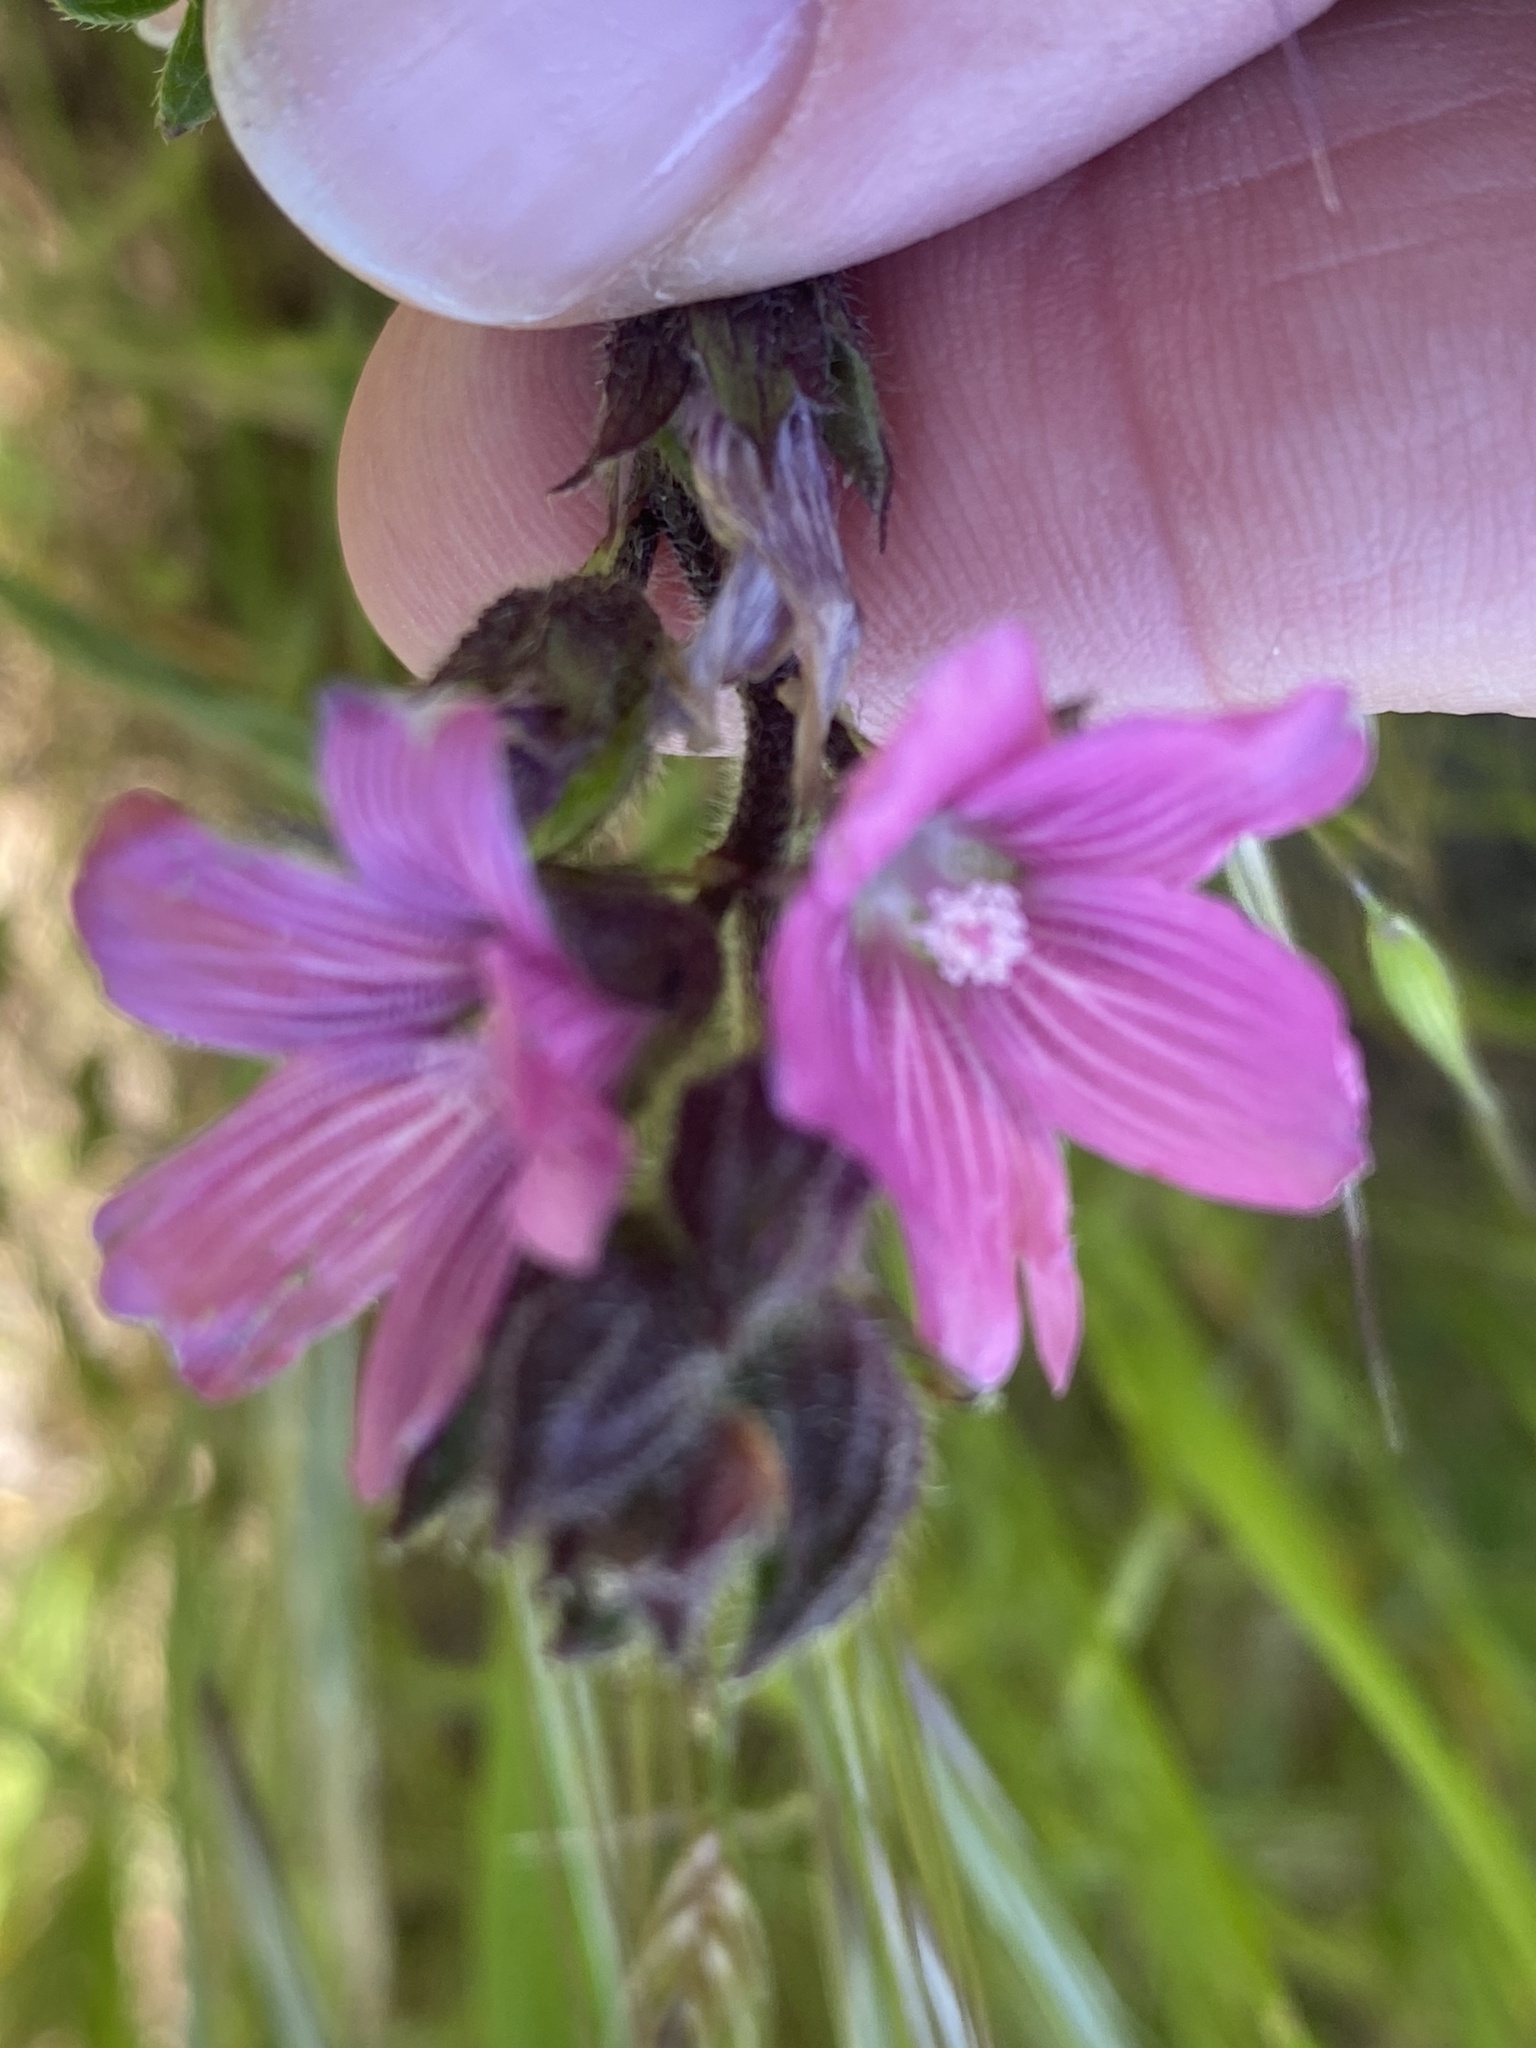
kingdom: Plantae
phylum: Tracheophyta
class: Magnoliopsida
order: Malvales
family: Malvaceae
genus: Sidalcea
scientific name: Sidalcea malviflora
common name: Greek mallow
